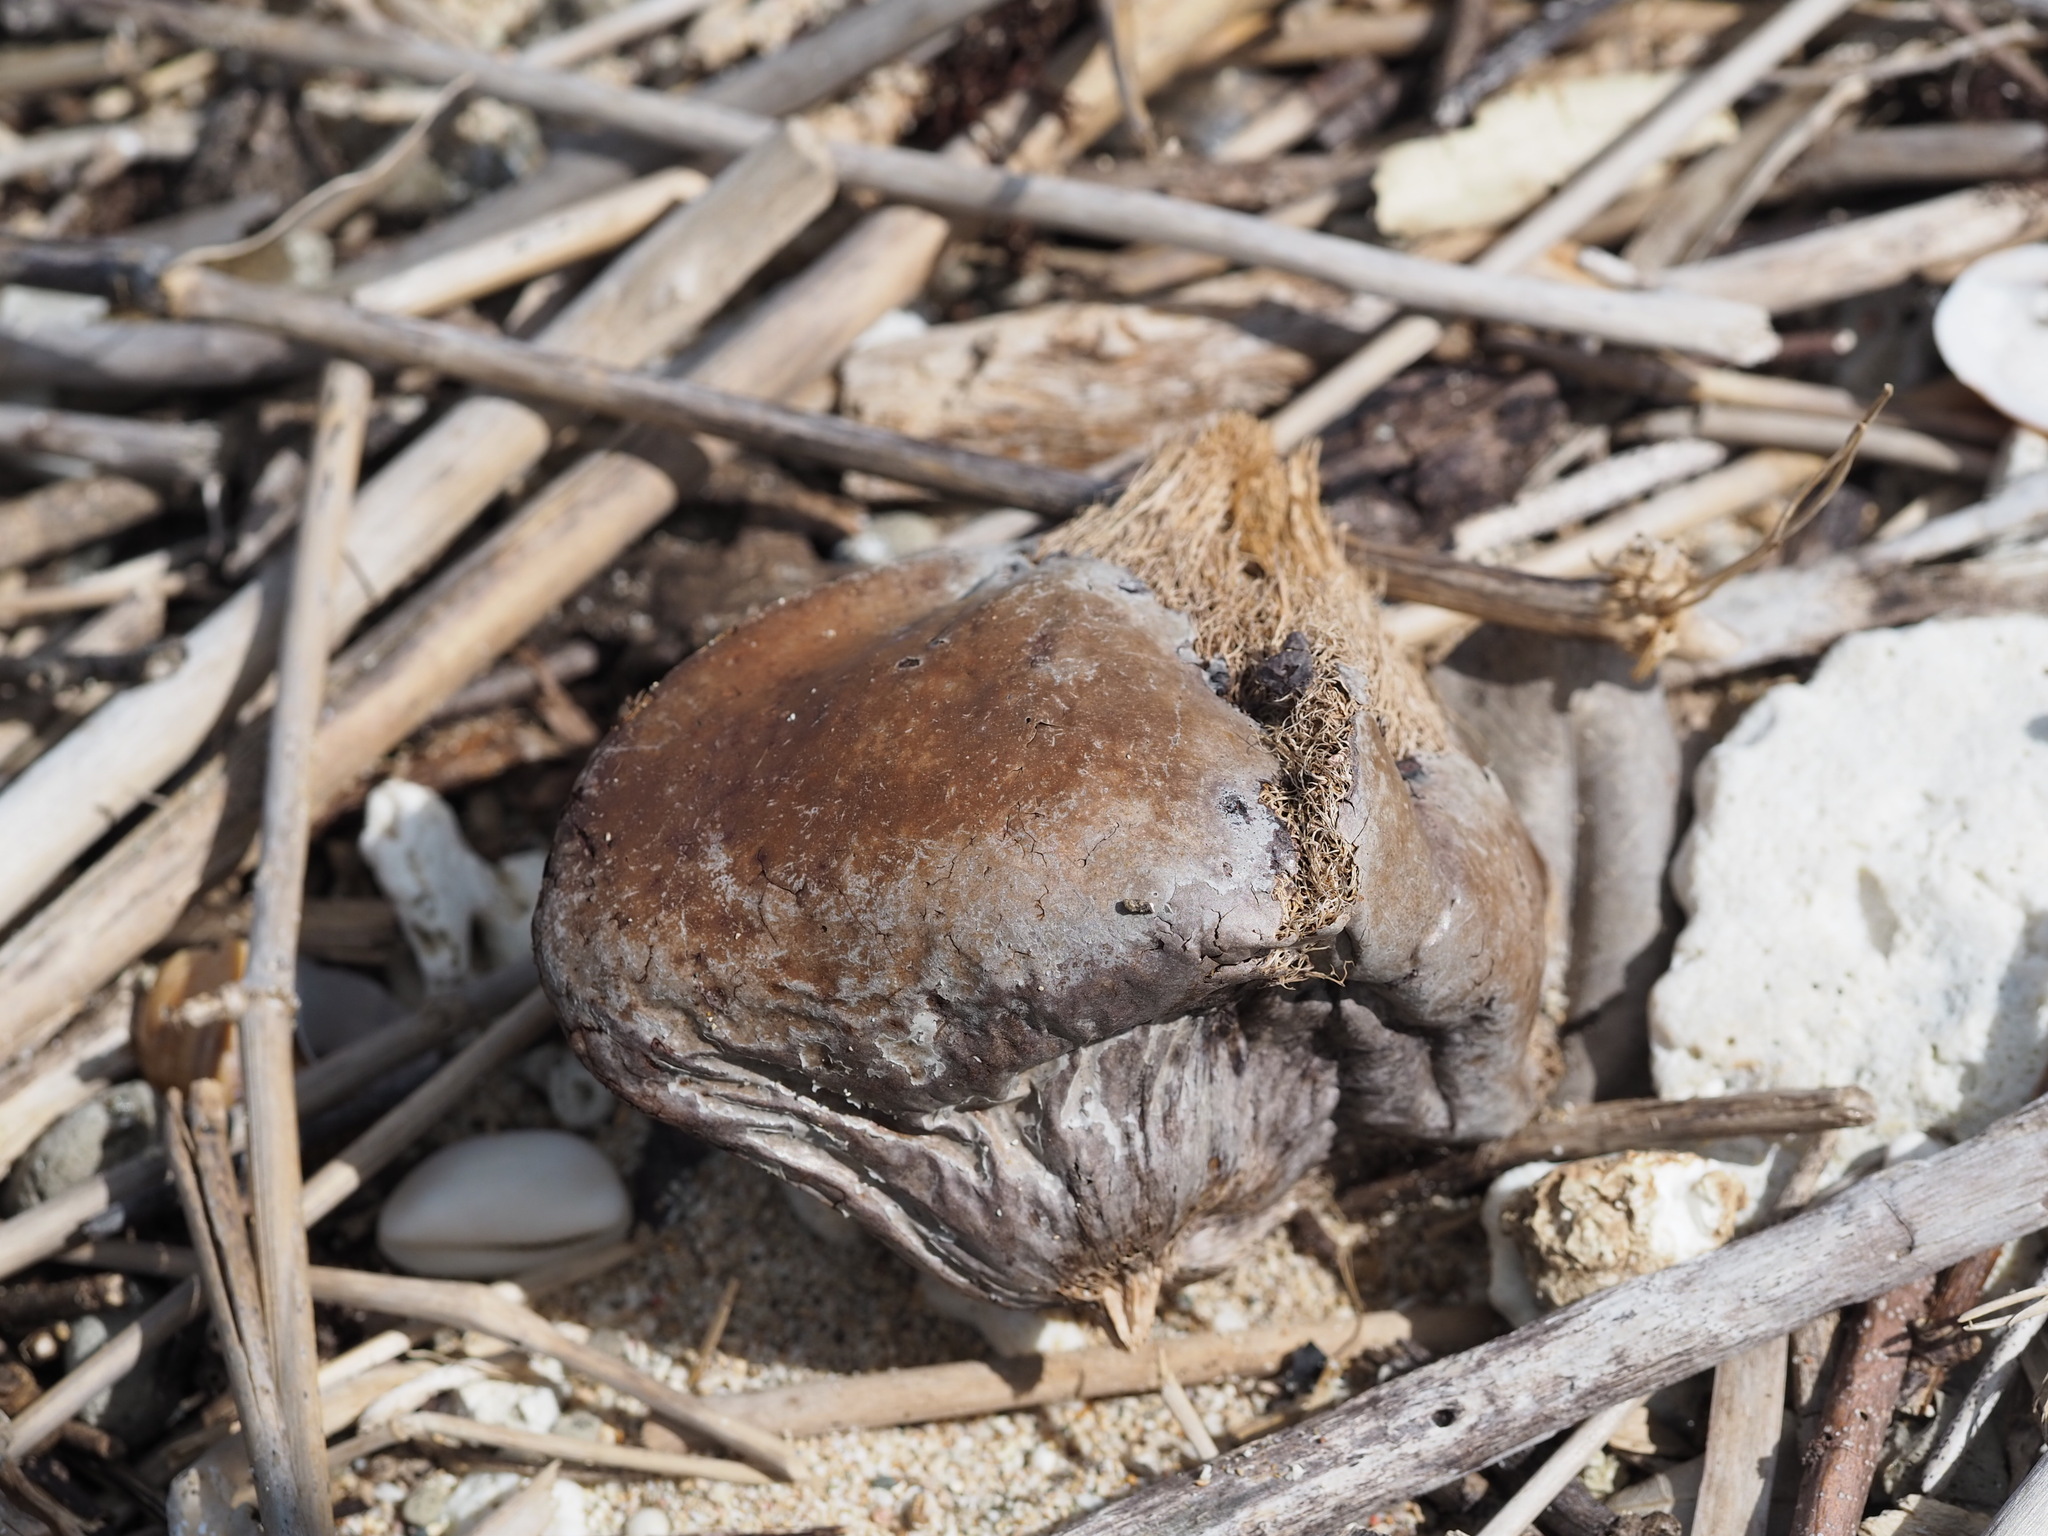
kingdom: Plantae
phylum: Tracheophyta
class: Magnoliopsida
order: Ericales
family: Lecythidaceae
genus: Barringtonia
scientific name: Barringtonia asiatica
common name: Mango-pine
